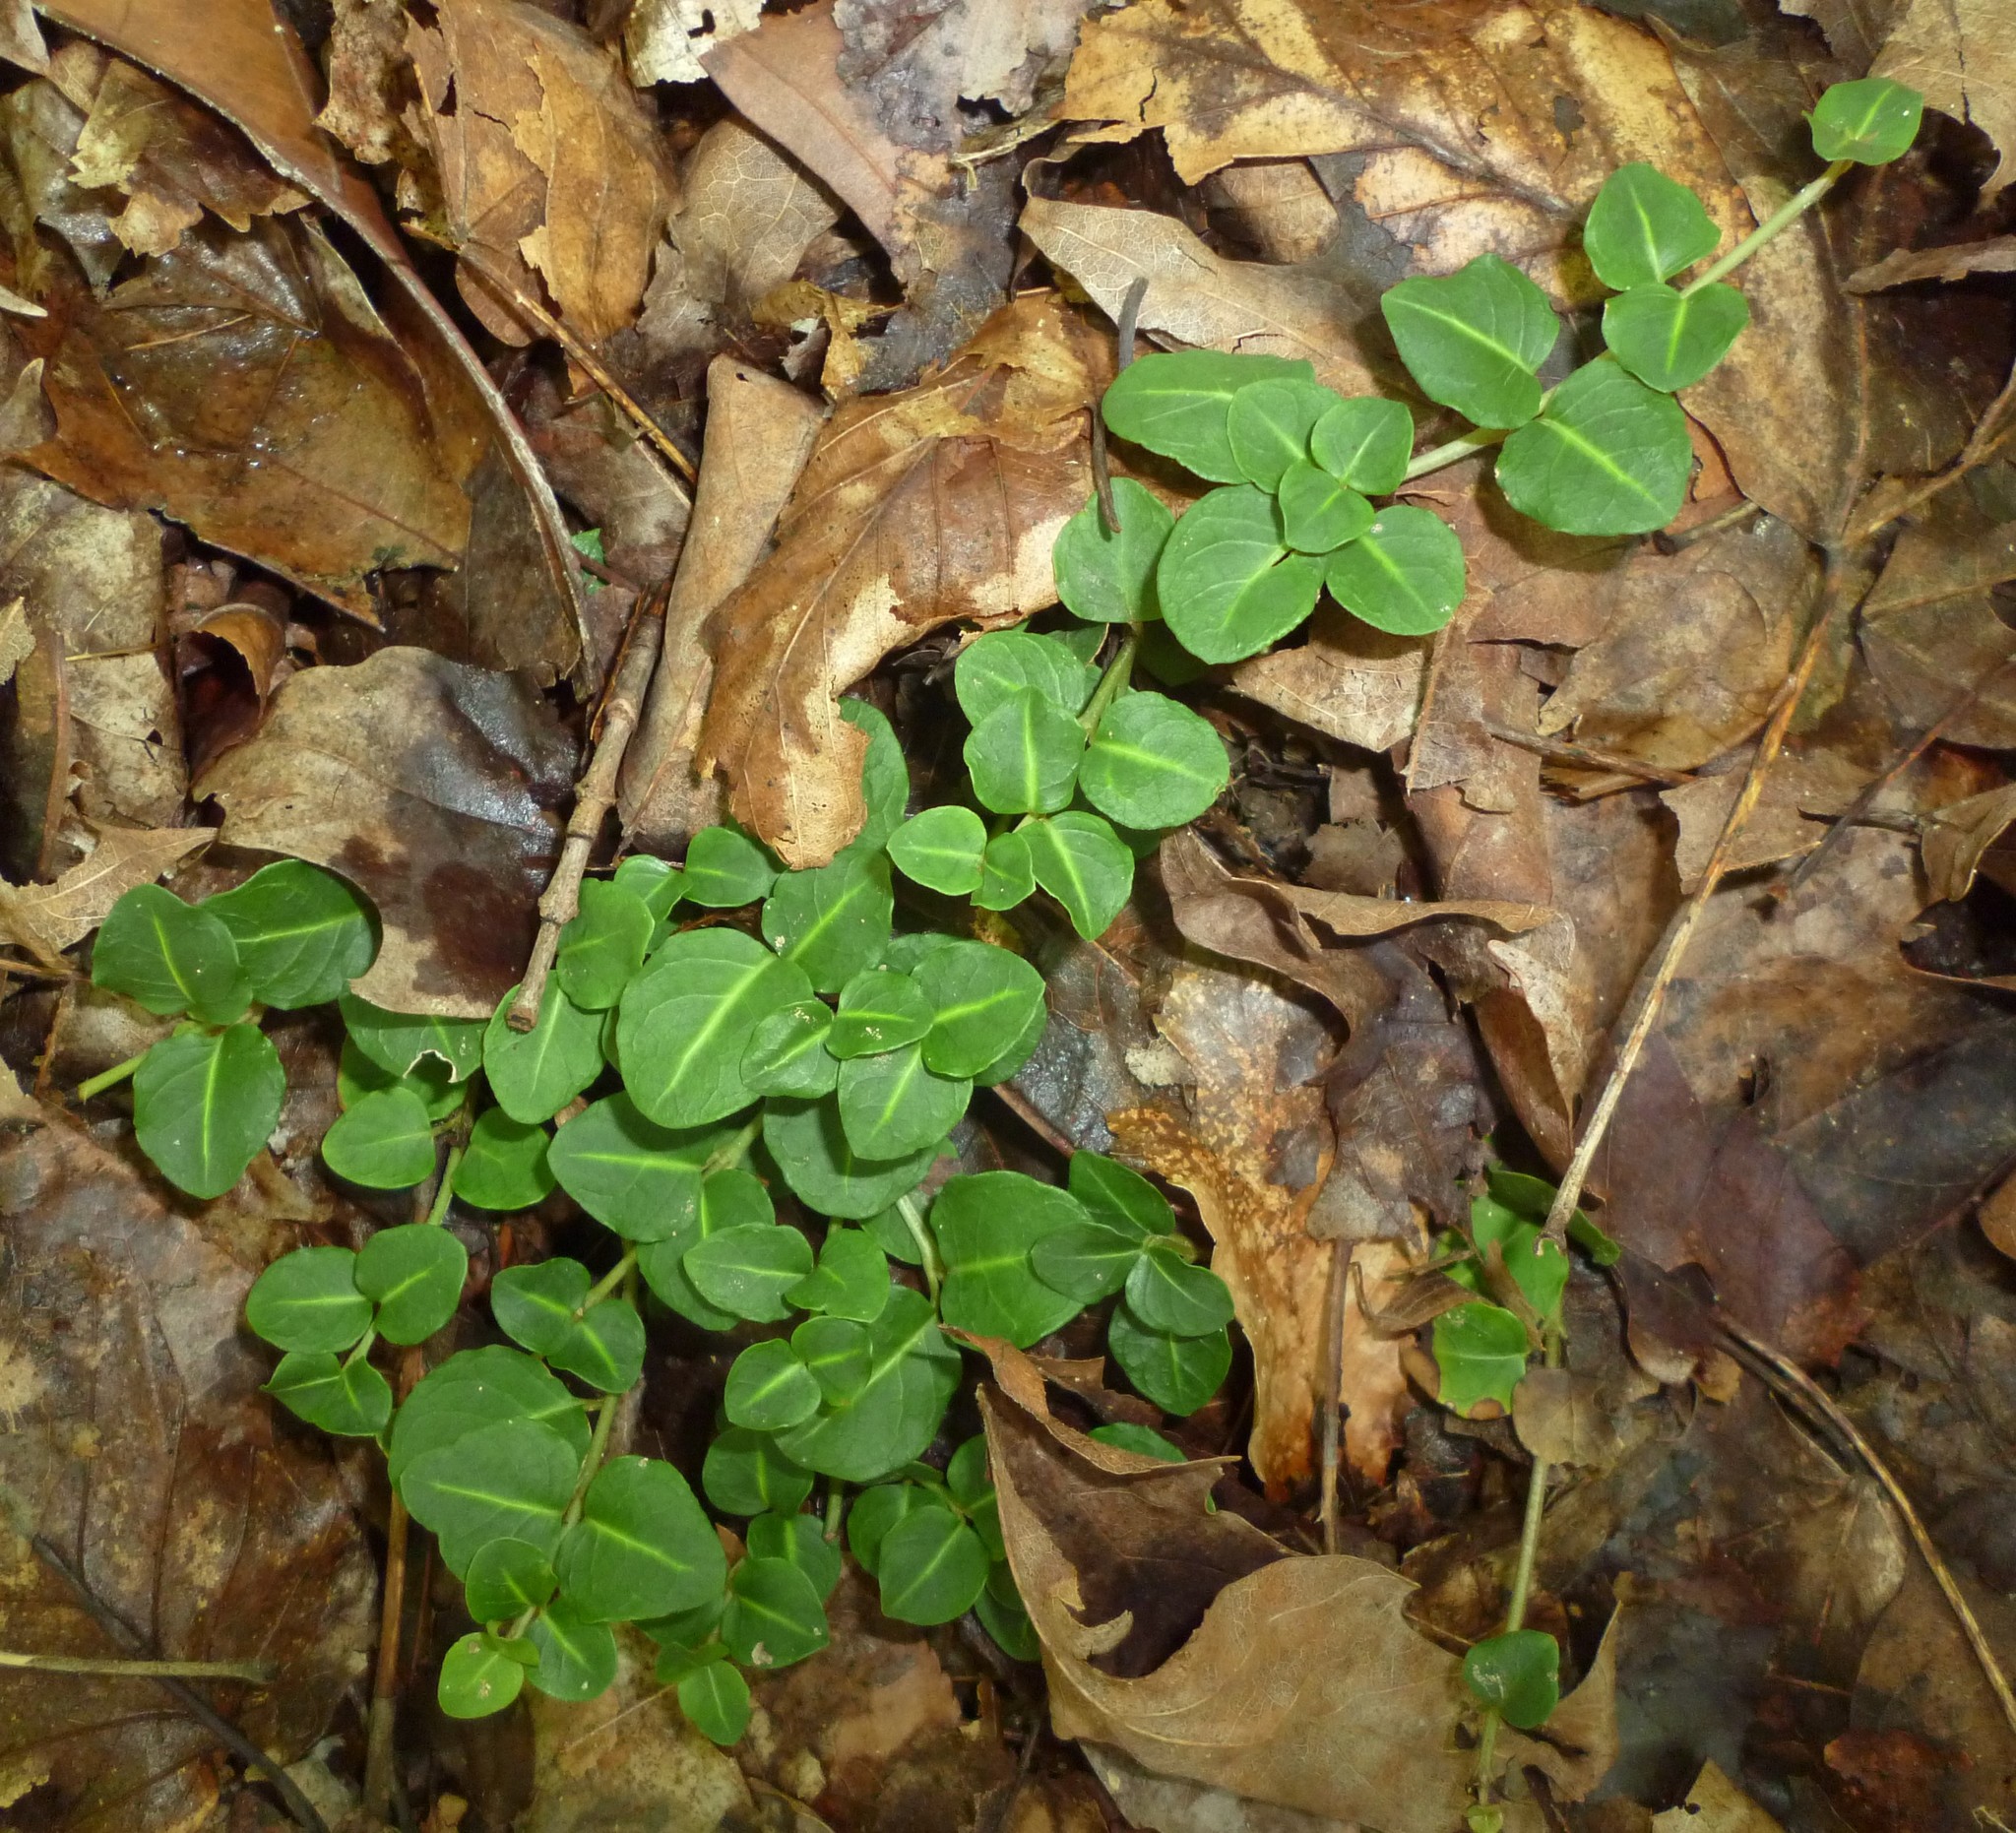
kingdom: Plantae
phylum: Tracheophyta
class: Magnoliopsida
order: Gentianales
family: Rubiaceae
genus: Mitchella
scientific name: Mitchella repens
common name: Partridge-berry
